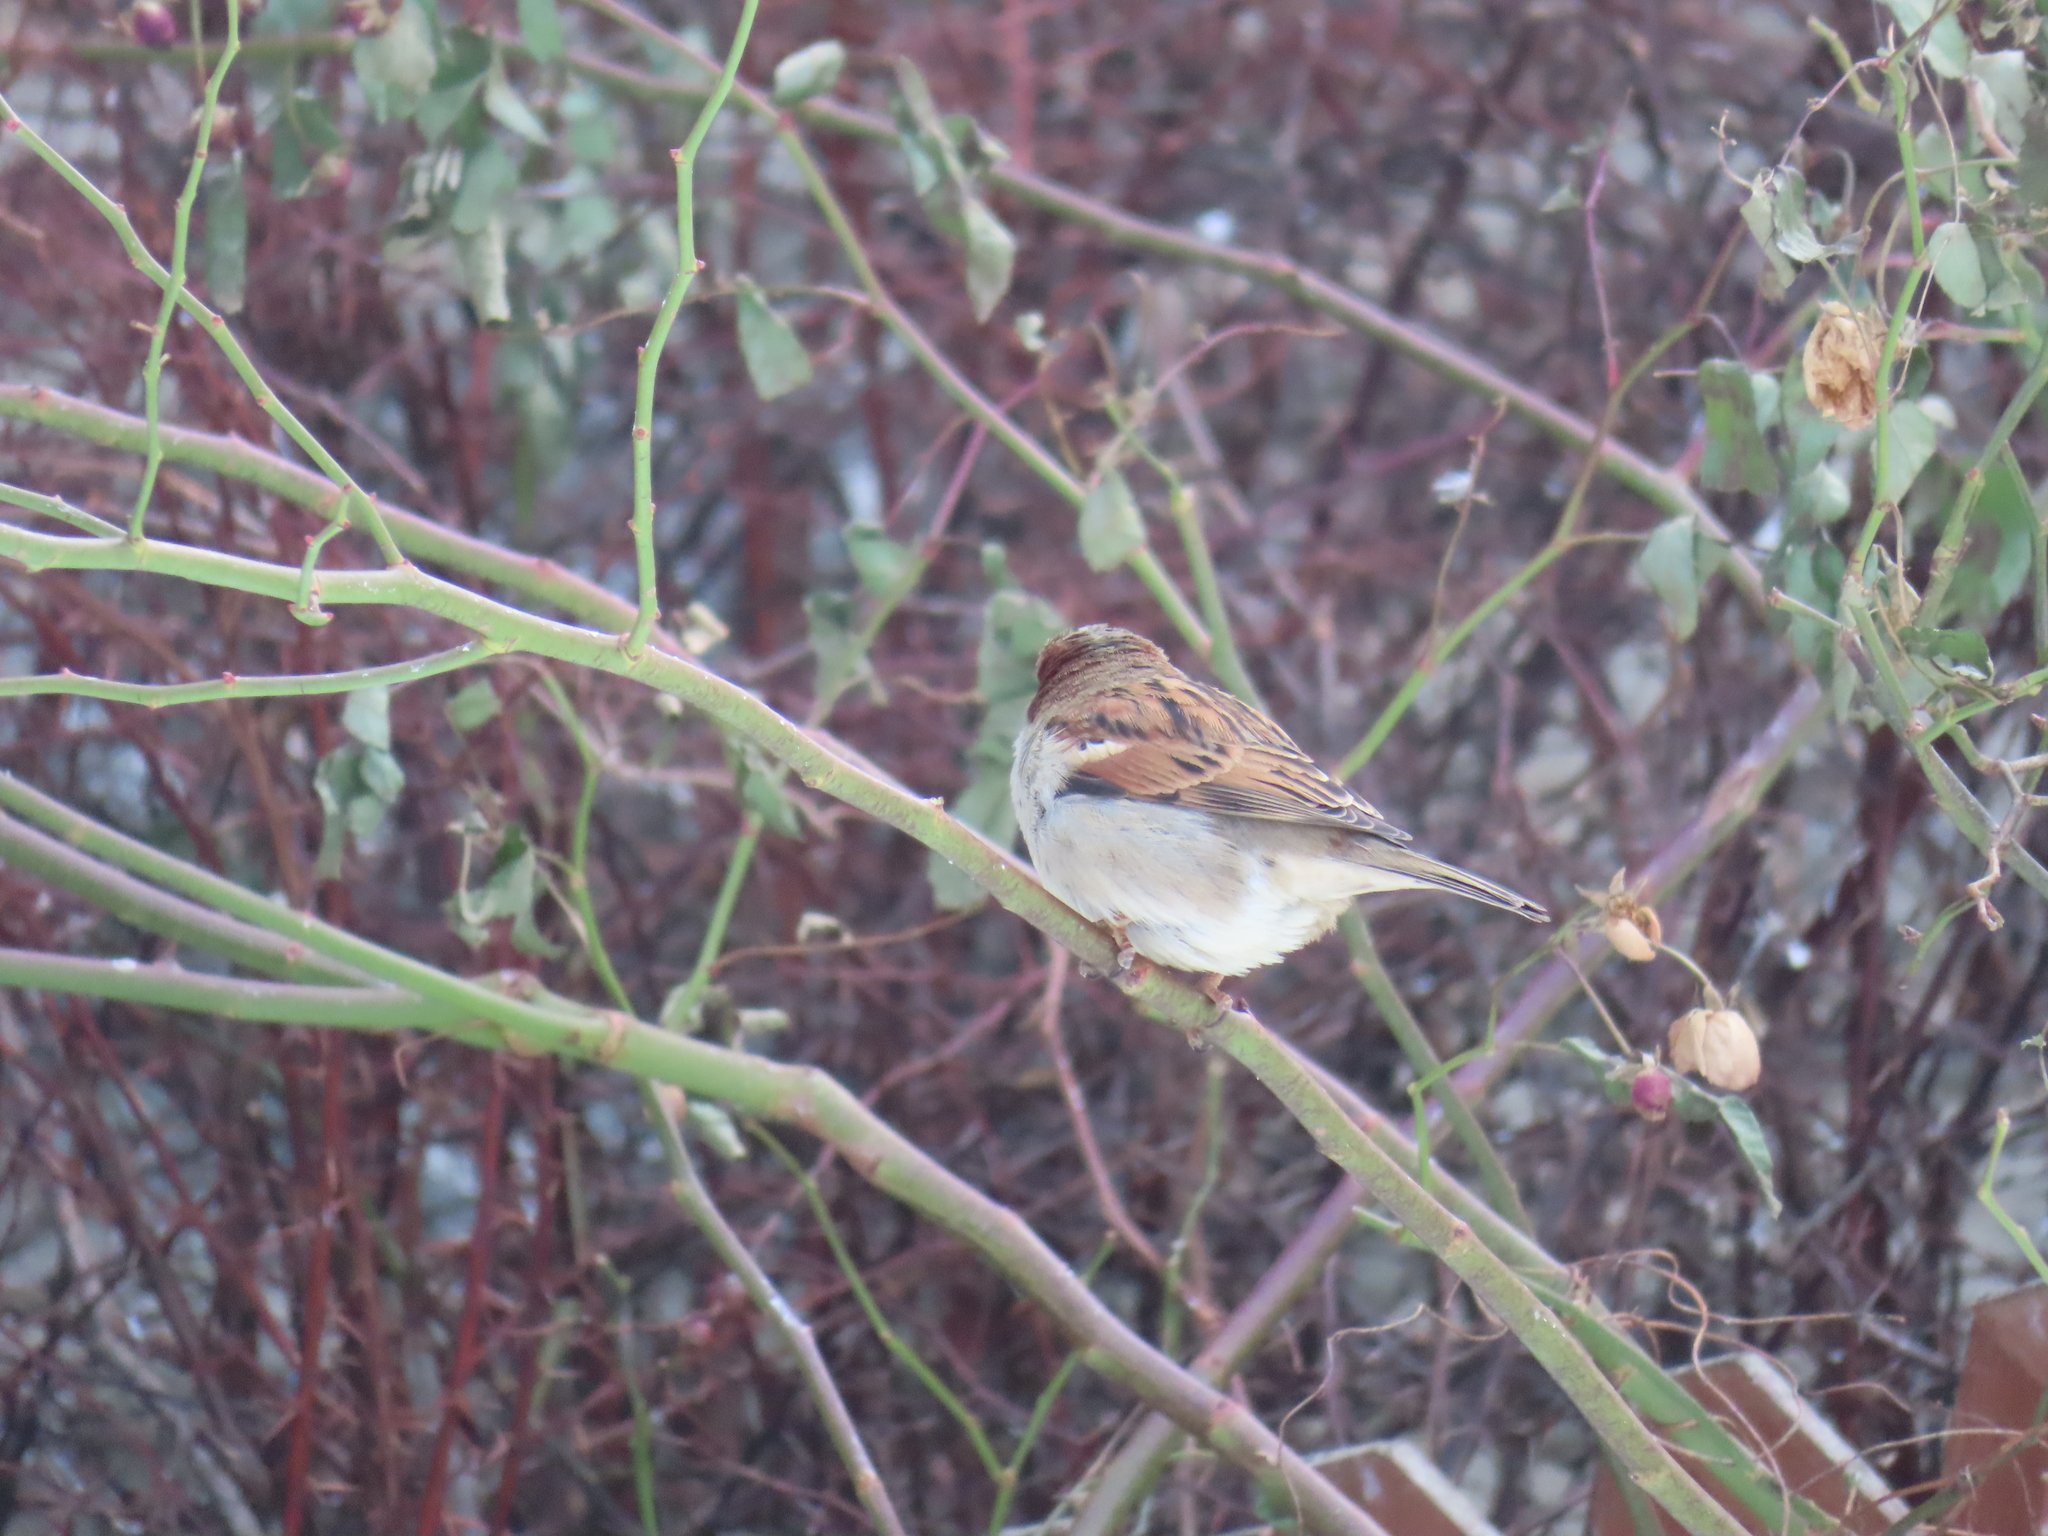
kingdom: Animalia
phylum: Chordata
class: Aves
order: Passeriformes
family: Passeridae
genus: Passer
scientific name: Passer domesticus
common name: House sparrow
